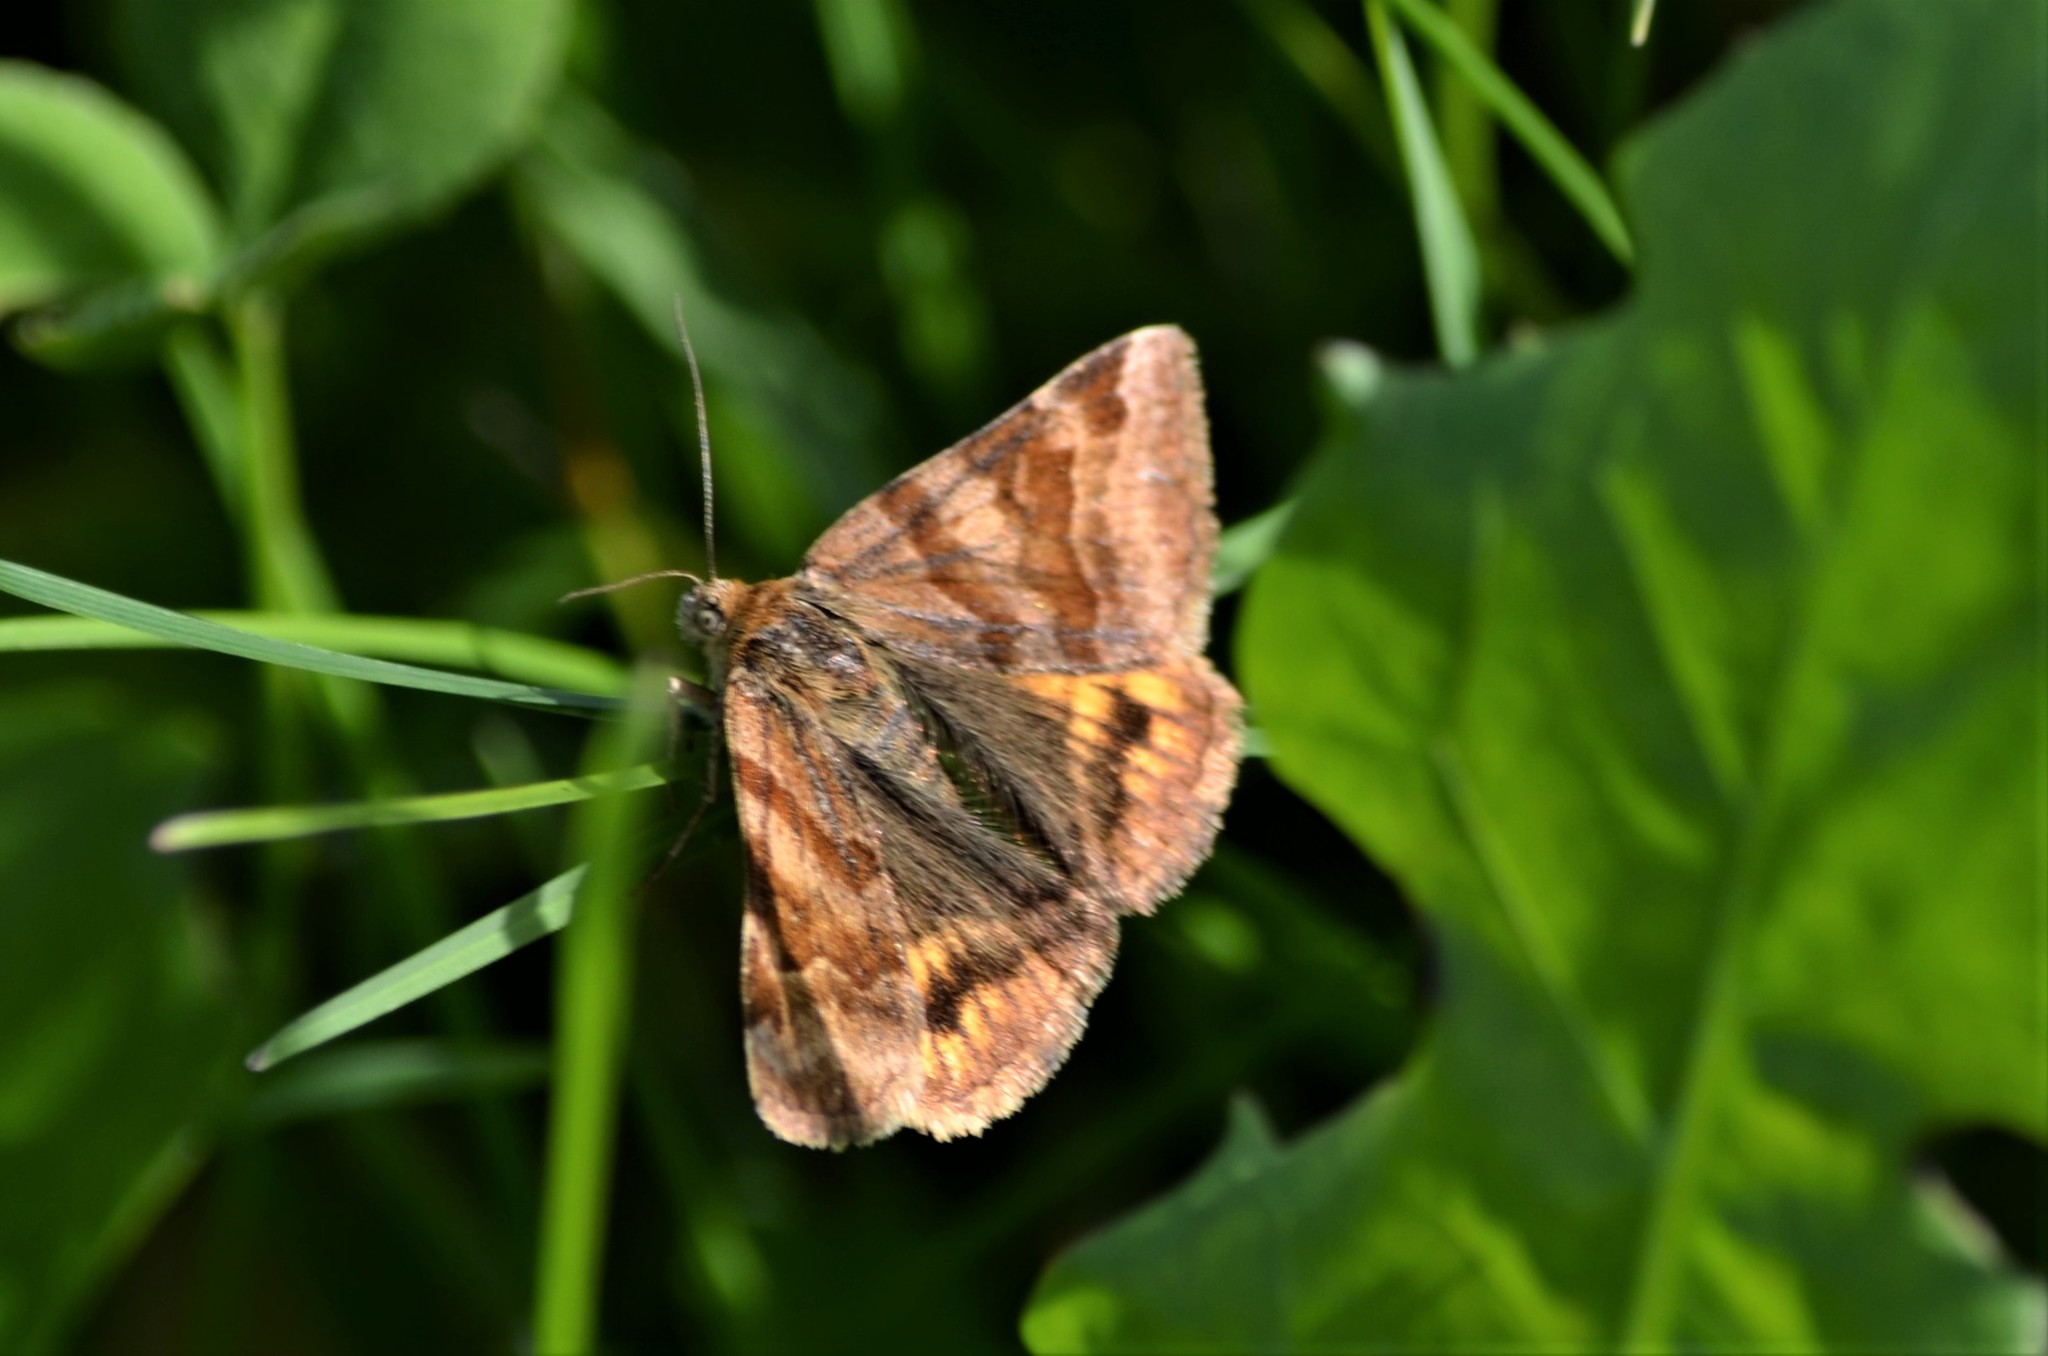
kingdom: Animalia
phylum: Arthropoda
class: Insecta
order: Lepidoptera
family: Erebidae
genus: Euclidia
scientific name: Euclidia glyphica
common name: Burnet companion
